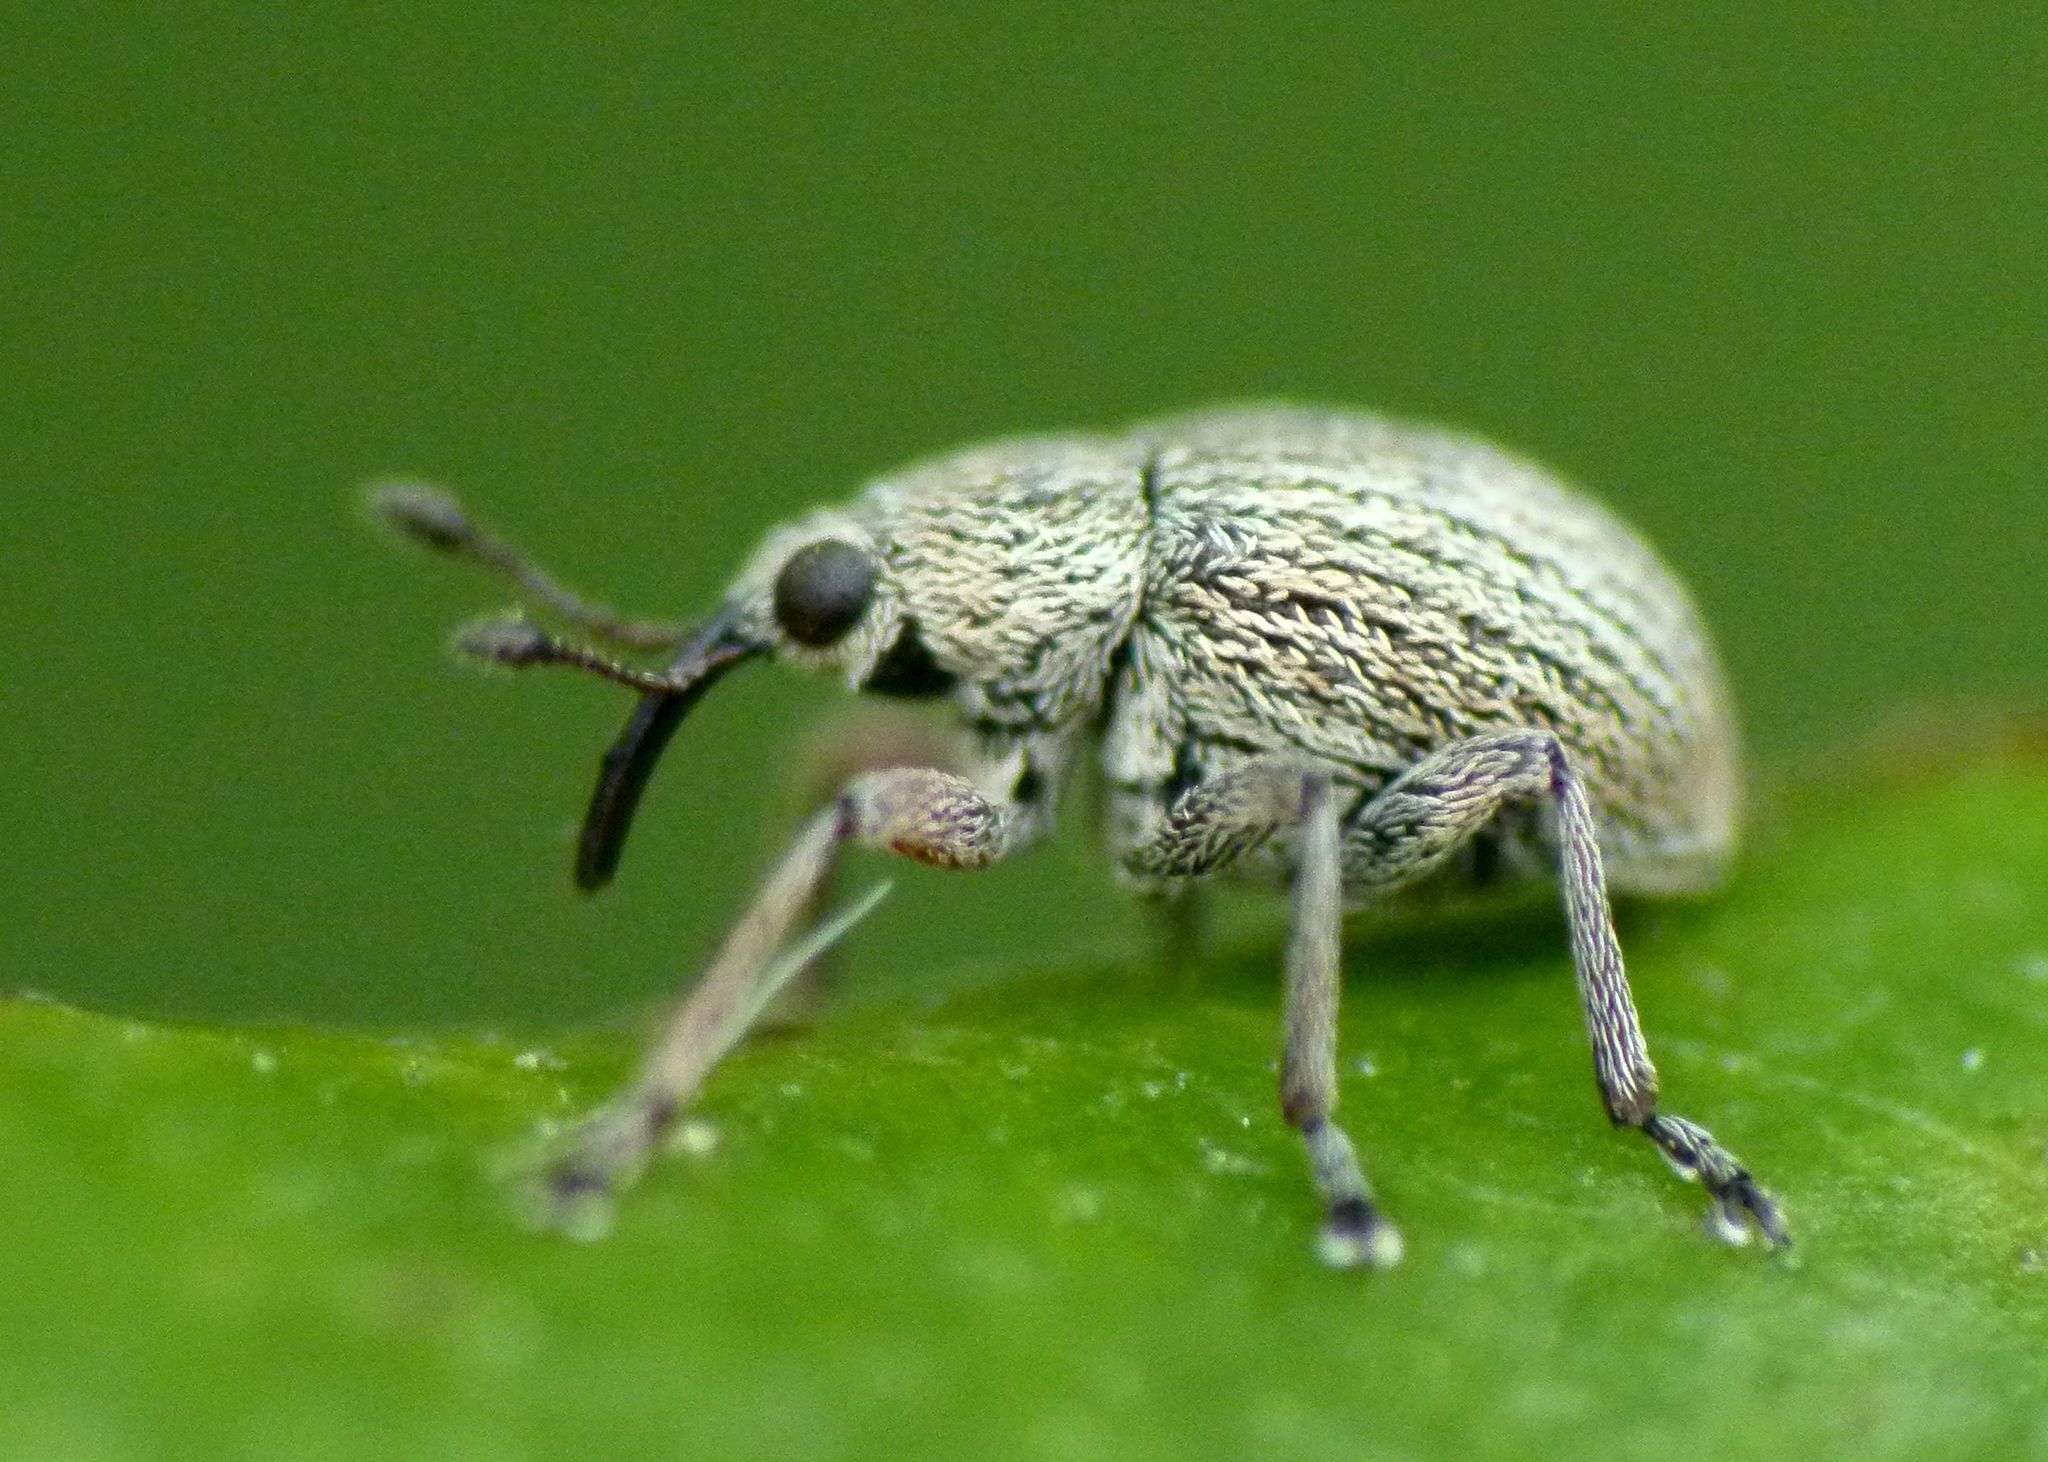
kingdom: Animalia
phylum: Arthropoda
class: Insecta
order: Coleoptera
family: Brentidae
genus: Exapion
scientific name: Exapion ulicis
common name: Gorse seed weevil
